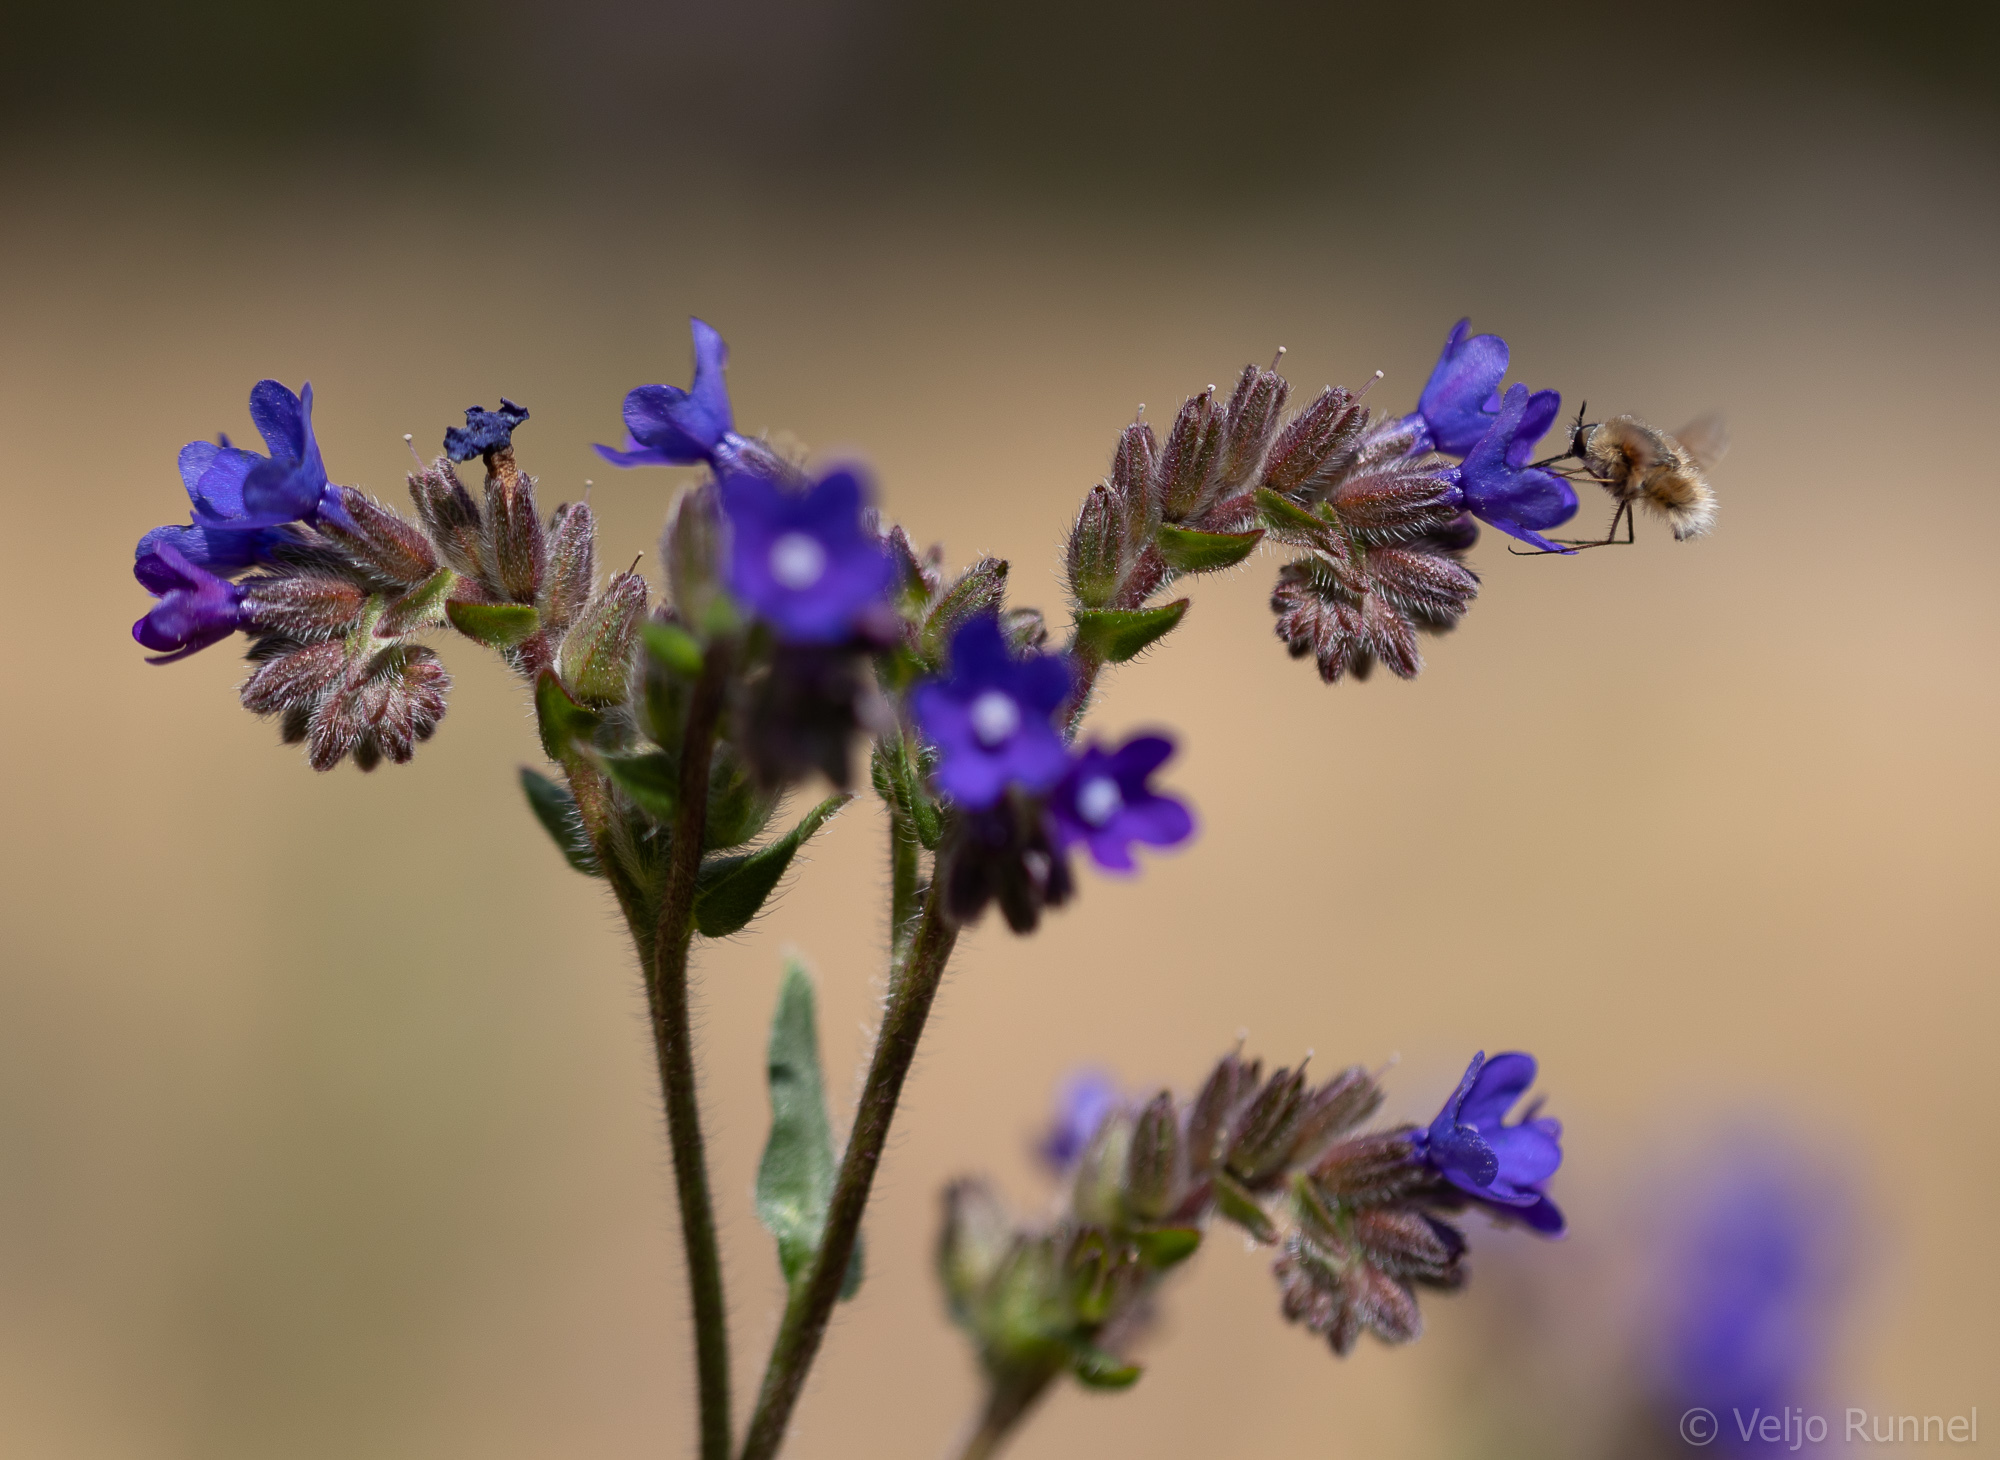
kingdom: Plantae
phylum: Tracheophyta
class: Magnoliopsida
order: Boraginales
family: Boraginaceae
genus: Anchusa
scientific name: Anchusa officinalis
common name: Alkanet
